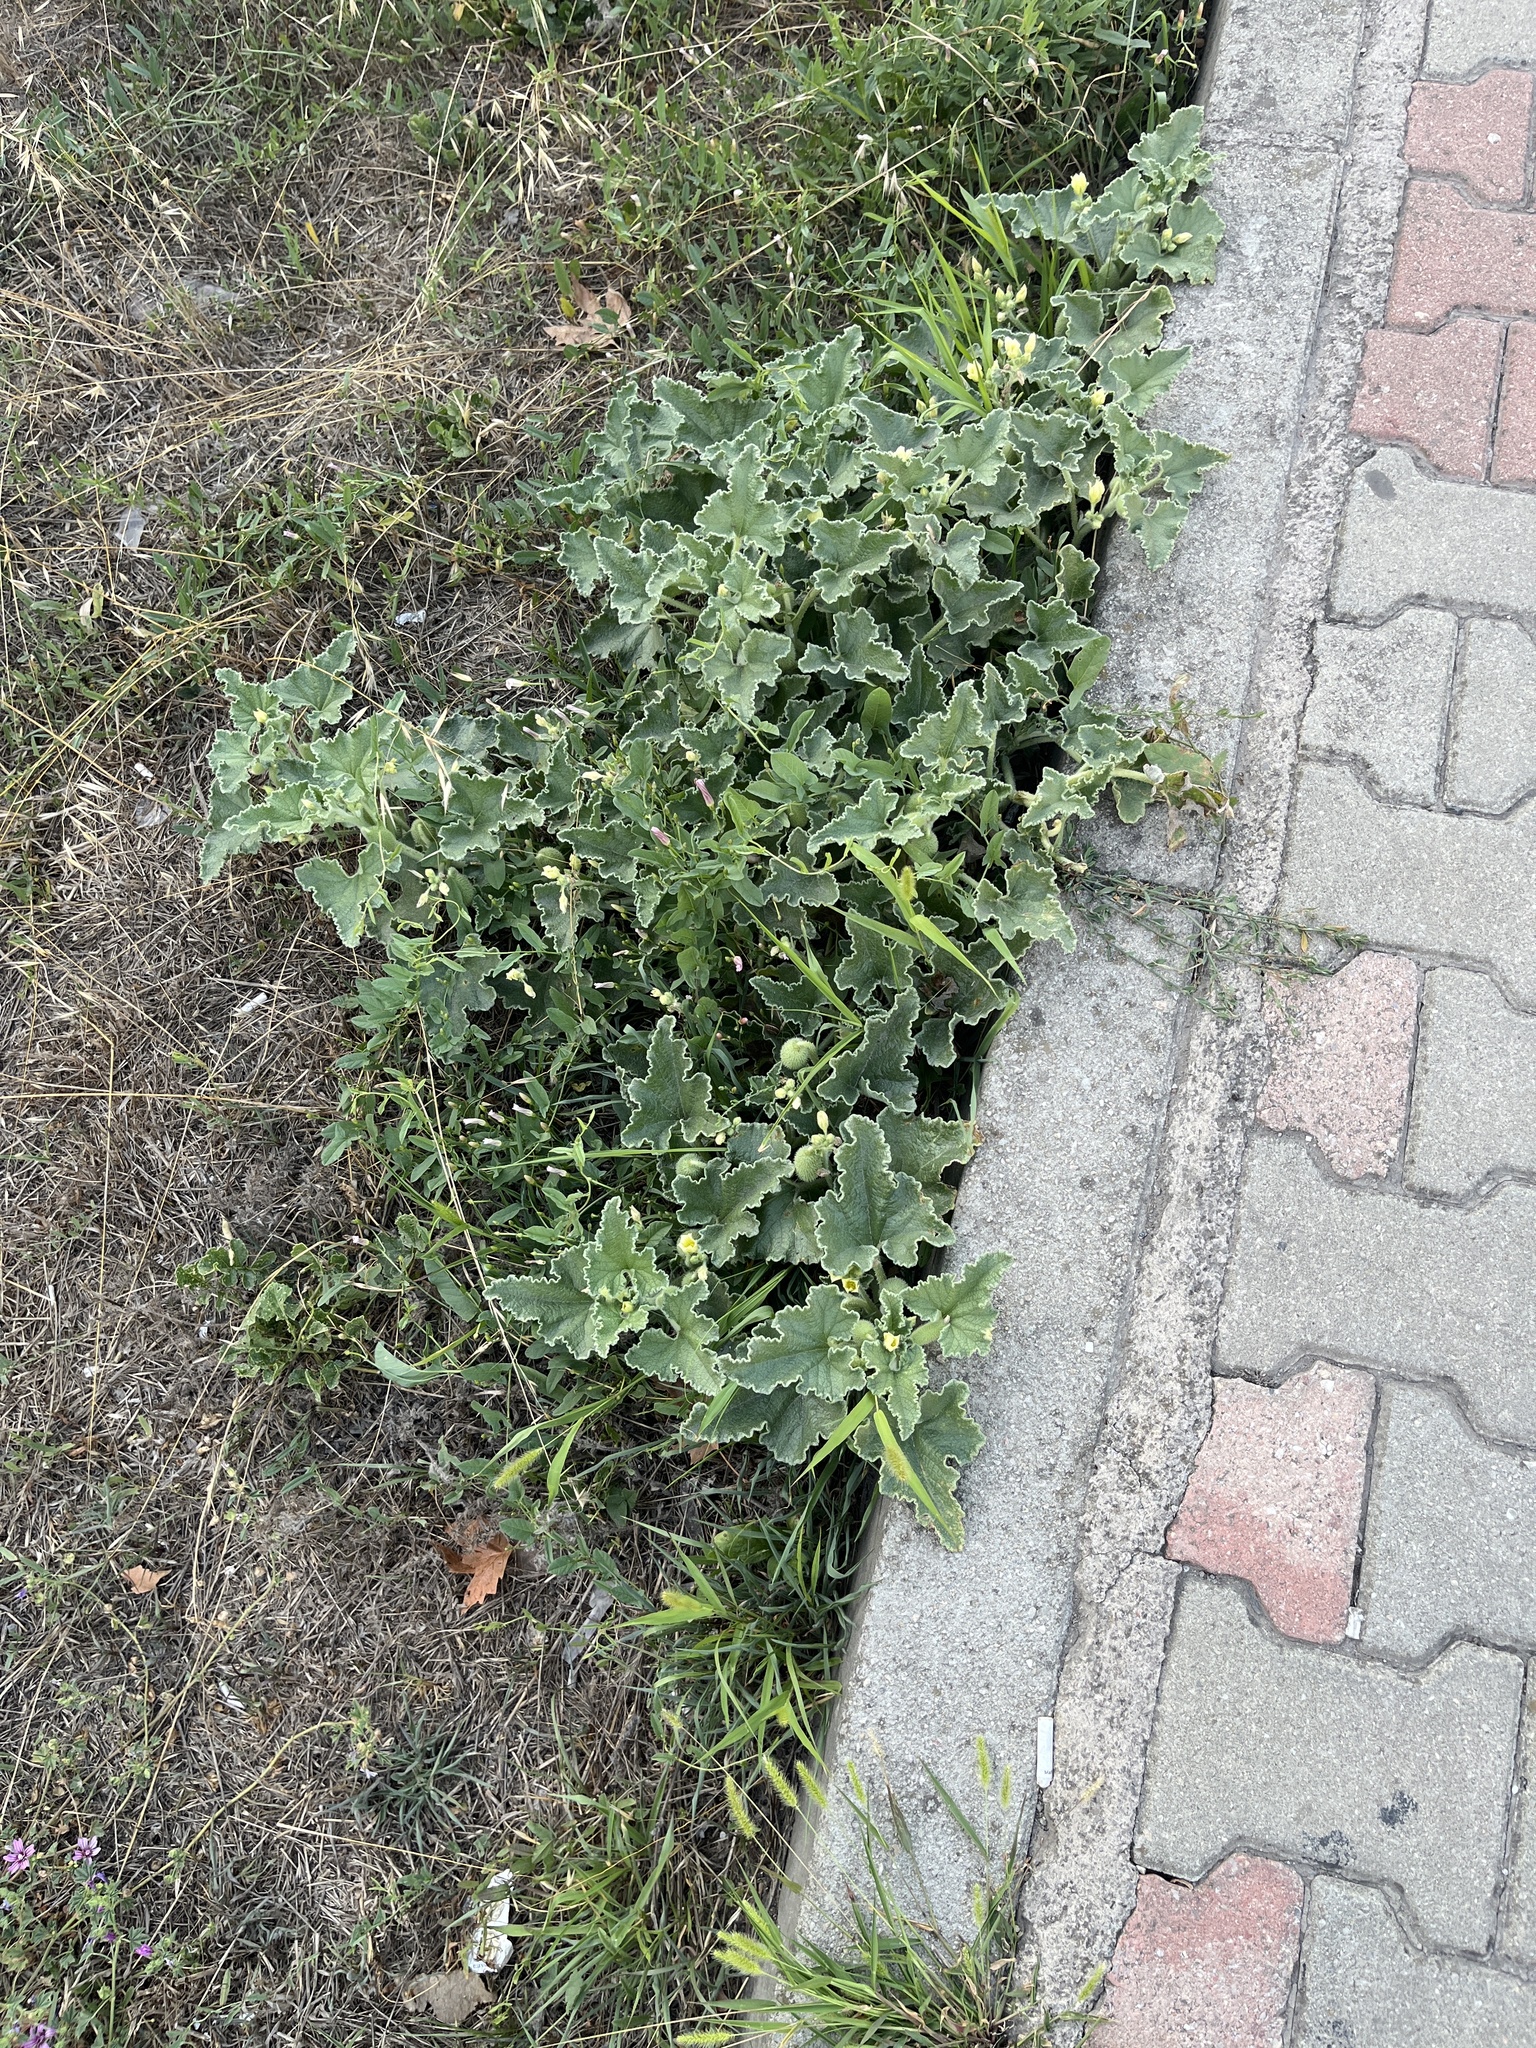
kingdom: Plantae
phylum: Tracheophyta
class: Magnoliopsida
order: Cucurbitales
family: Cucurbitaceae
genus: Ecballium
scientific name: Ecballium elaterium
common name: Squirting cucumber
